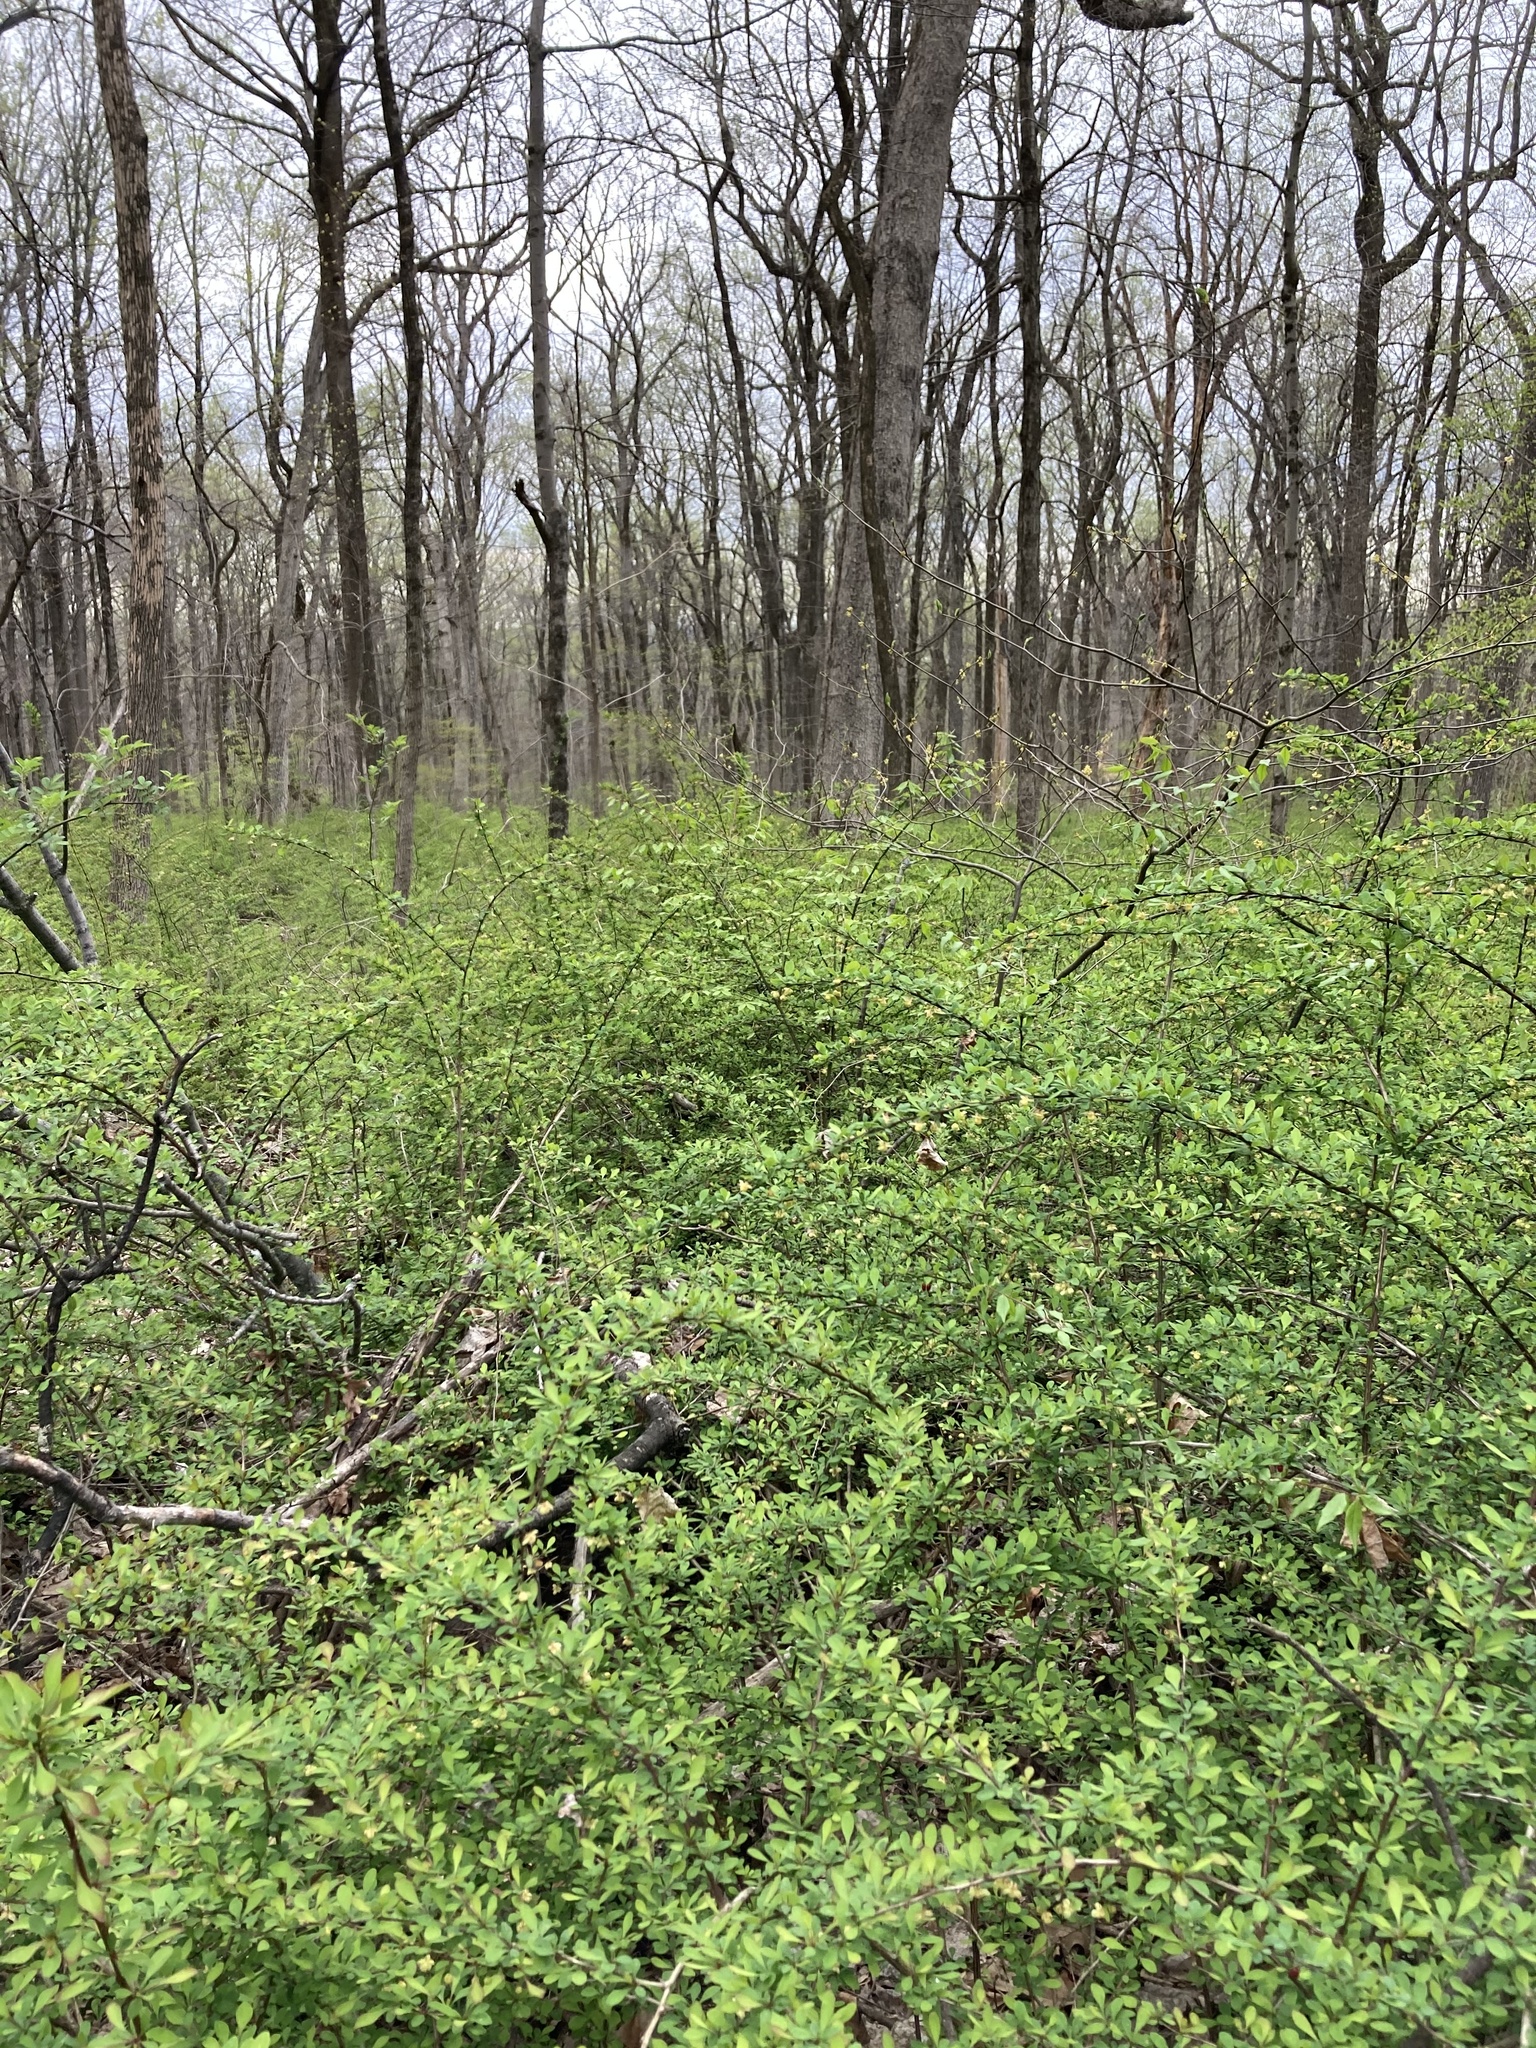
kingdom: Plantae
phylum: Tracheophyta
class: Magnoliopsida
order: Ranunculales
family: Berberidaceae
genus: Berberis
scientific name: Berberis thunbergii
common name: Japanese barberry
